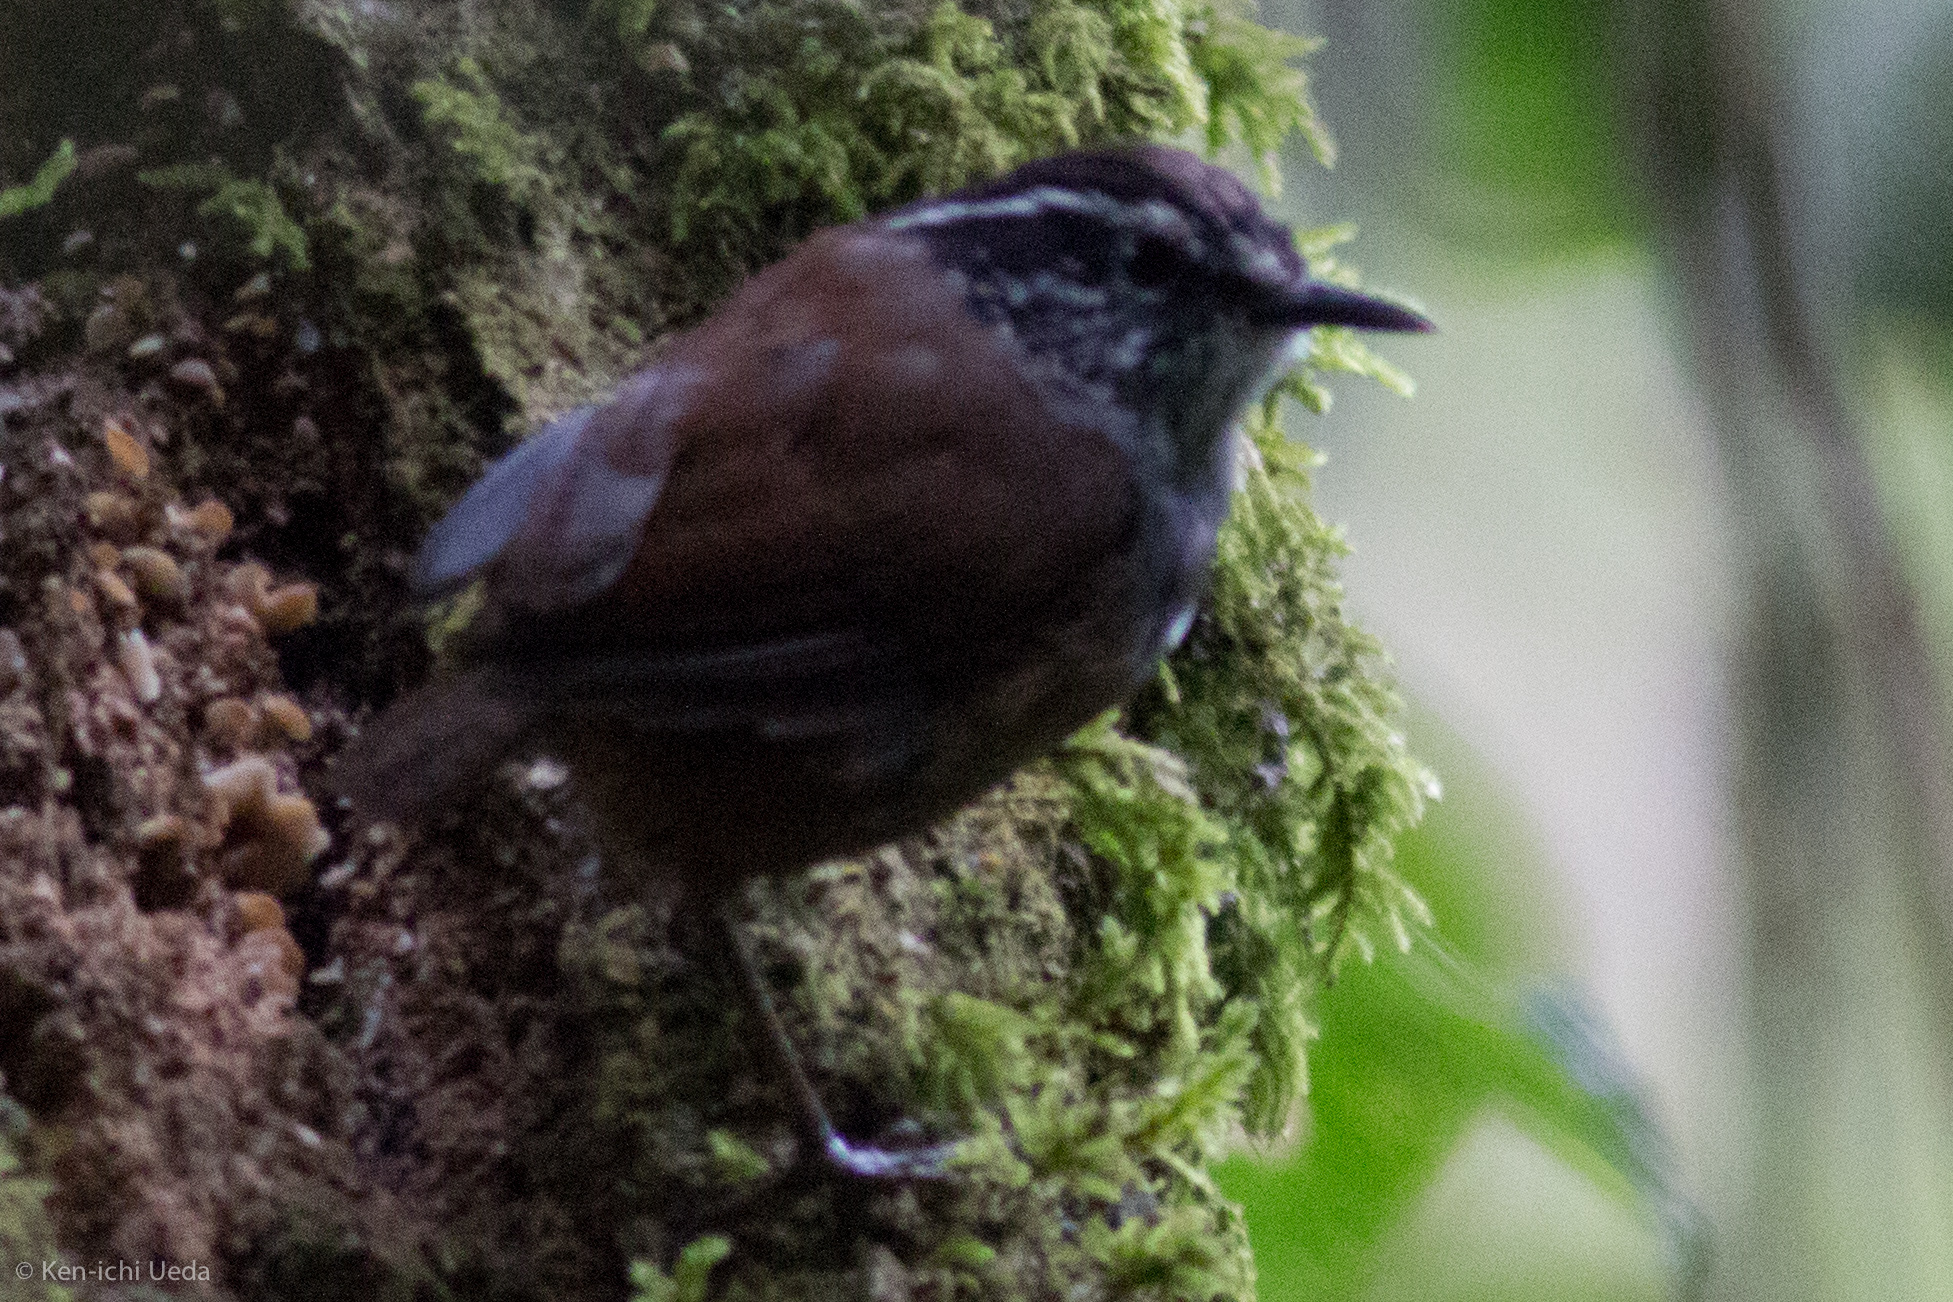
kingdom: Animalia
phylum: Chordata
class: Aves
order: Passeriformes
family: Troglodytidae
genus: Henicorhina
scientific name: Henicorhina leucophrys
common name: Gray-breasted wood-wren
